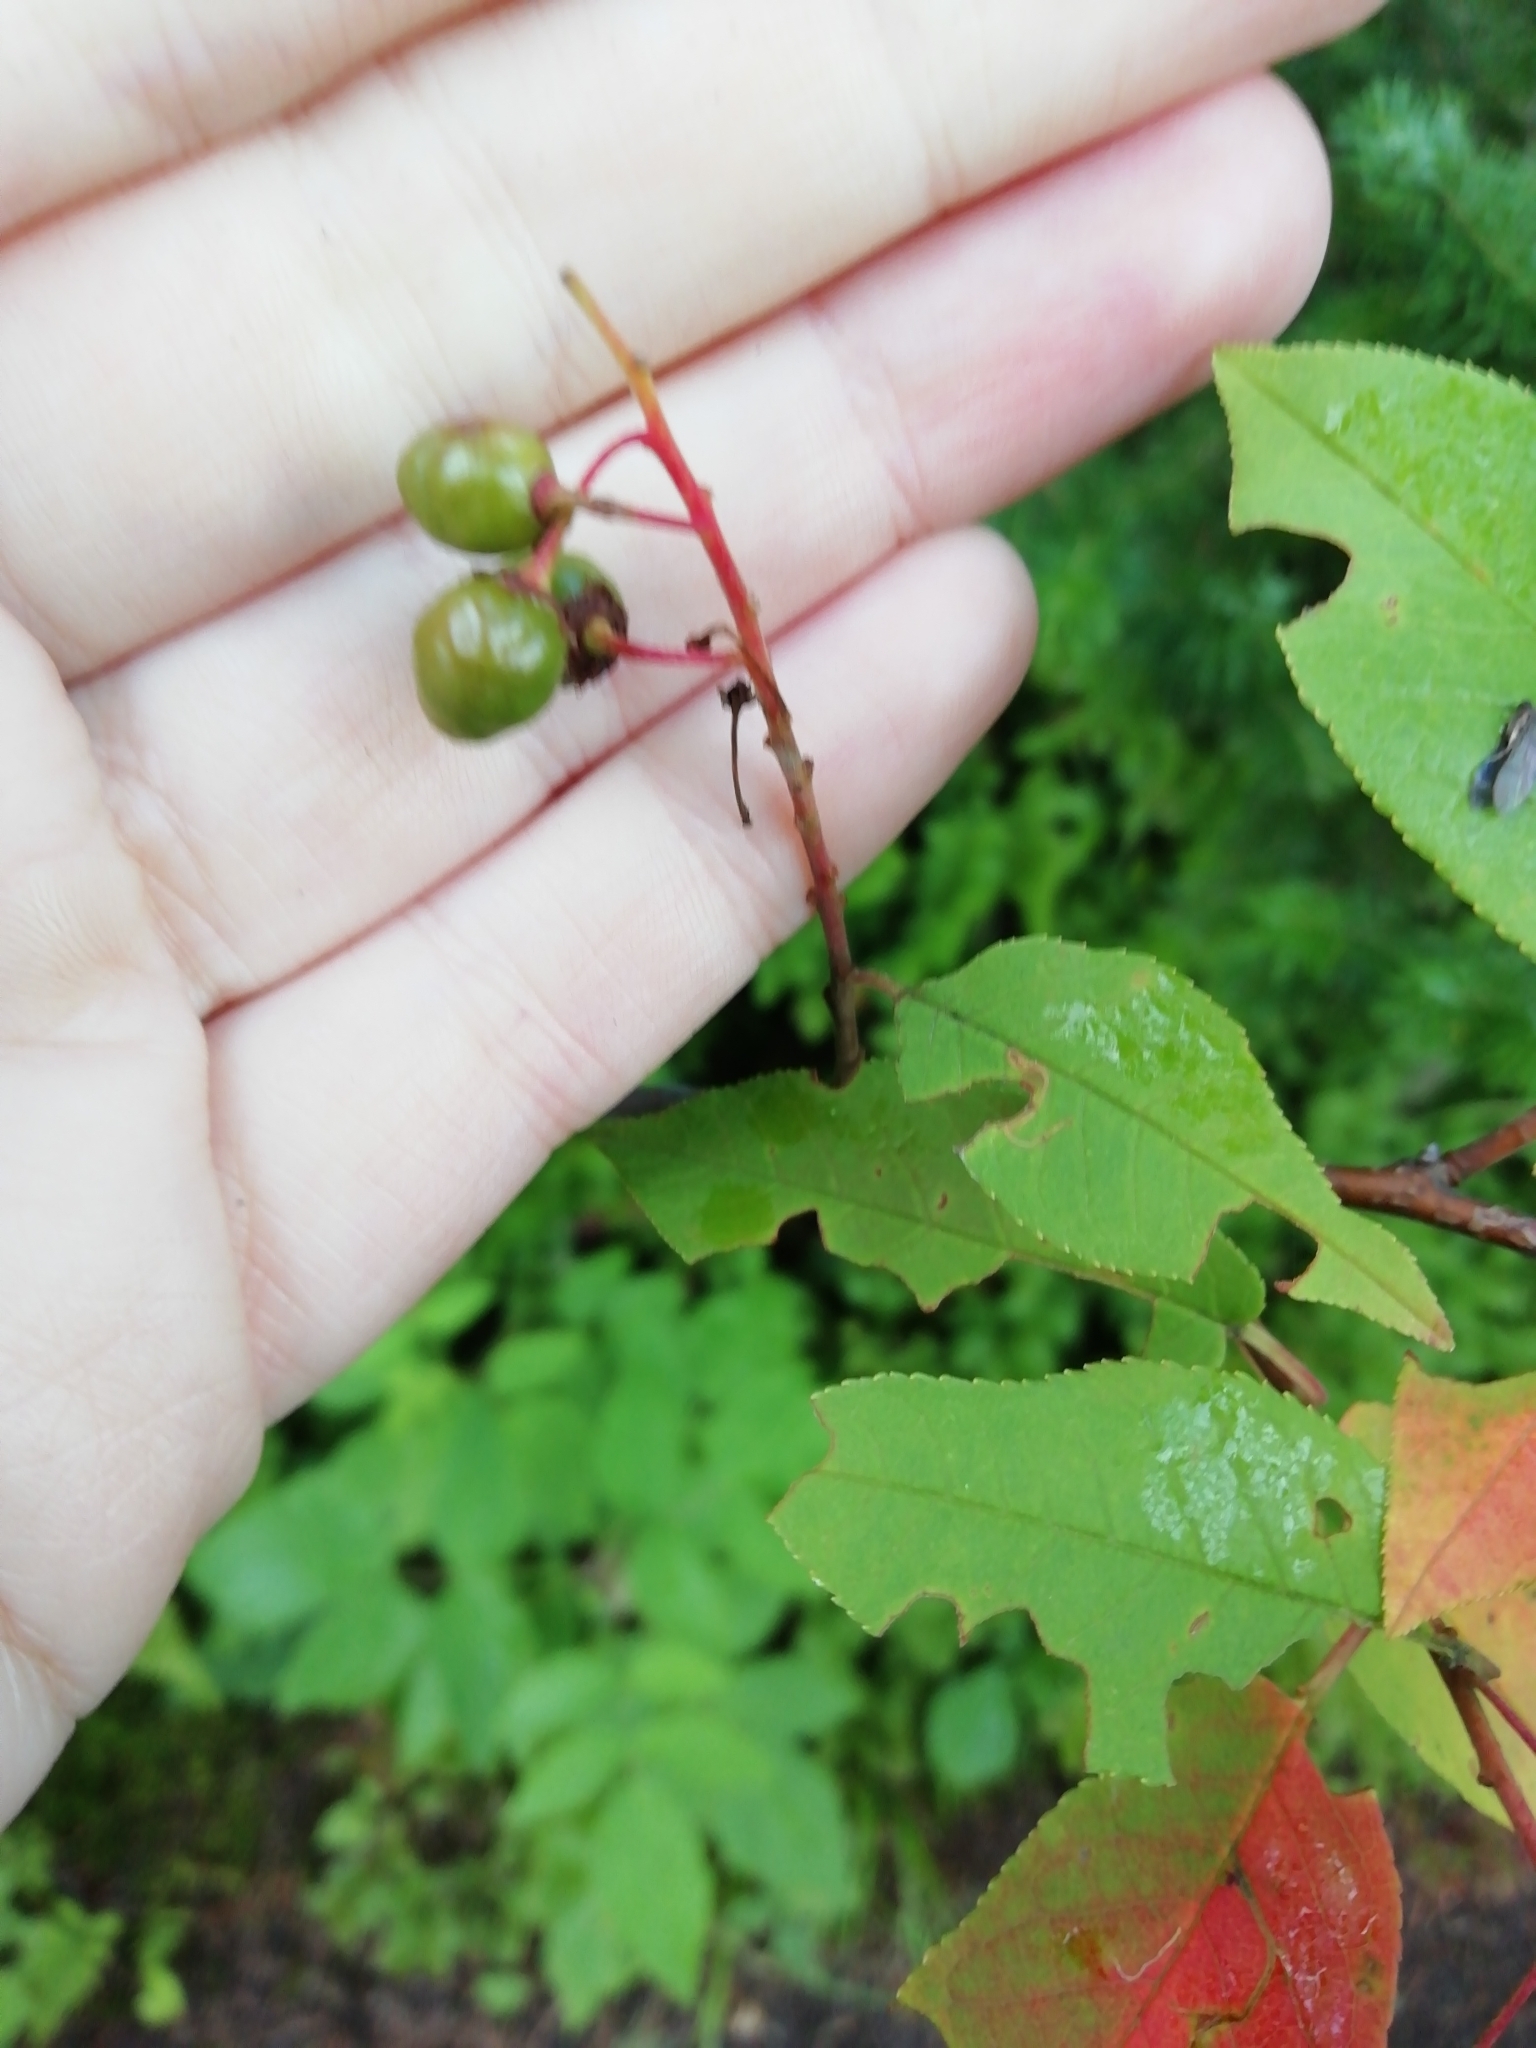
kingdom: Plantae
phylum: Tracheophyta
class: Magnoliopsida
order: Rosales
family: Rosaceae
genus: Prunus
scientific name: Prunus padus
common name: Bird cherry
